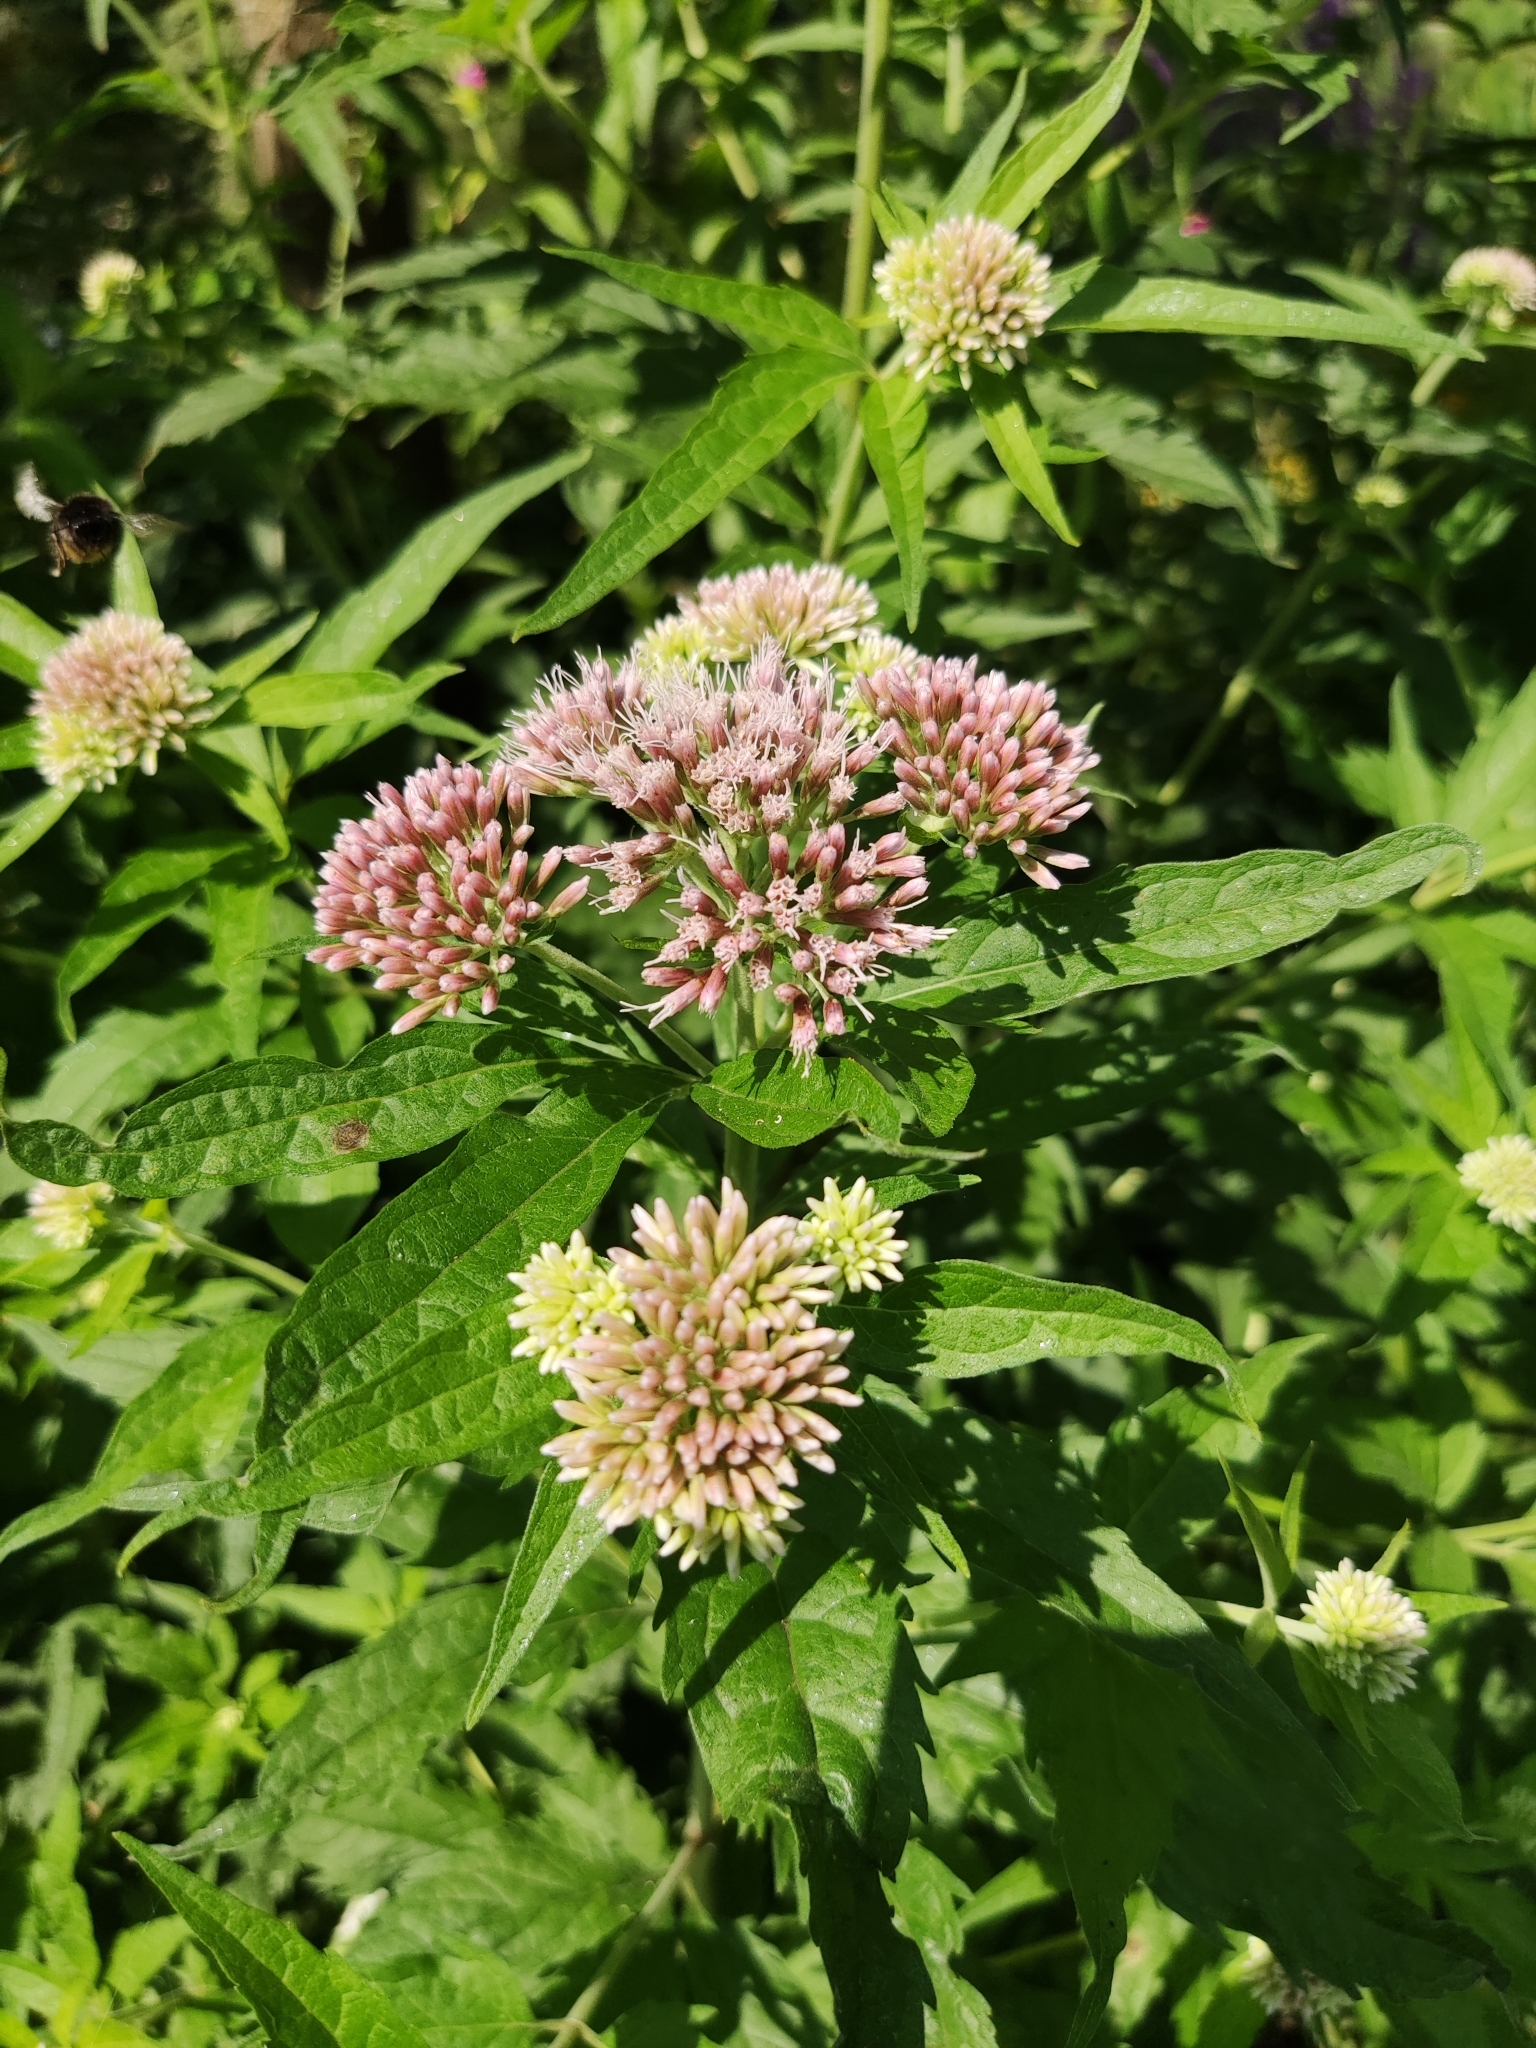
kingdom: Plantae
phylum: Tracheophyta
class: Magnoliopsida
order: Asterales
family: Asteraceae
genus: Eupatorium
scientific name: Eupatorium cannabinum
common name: Hemp-agrimony
